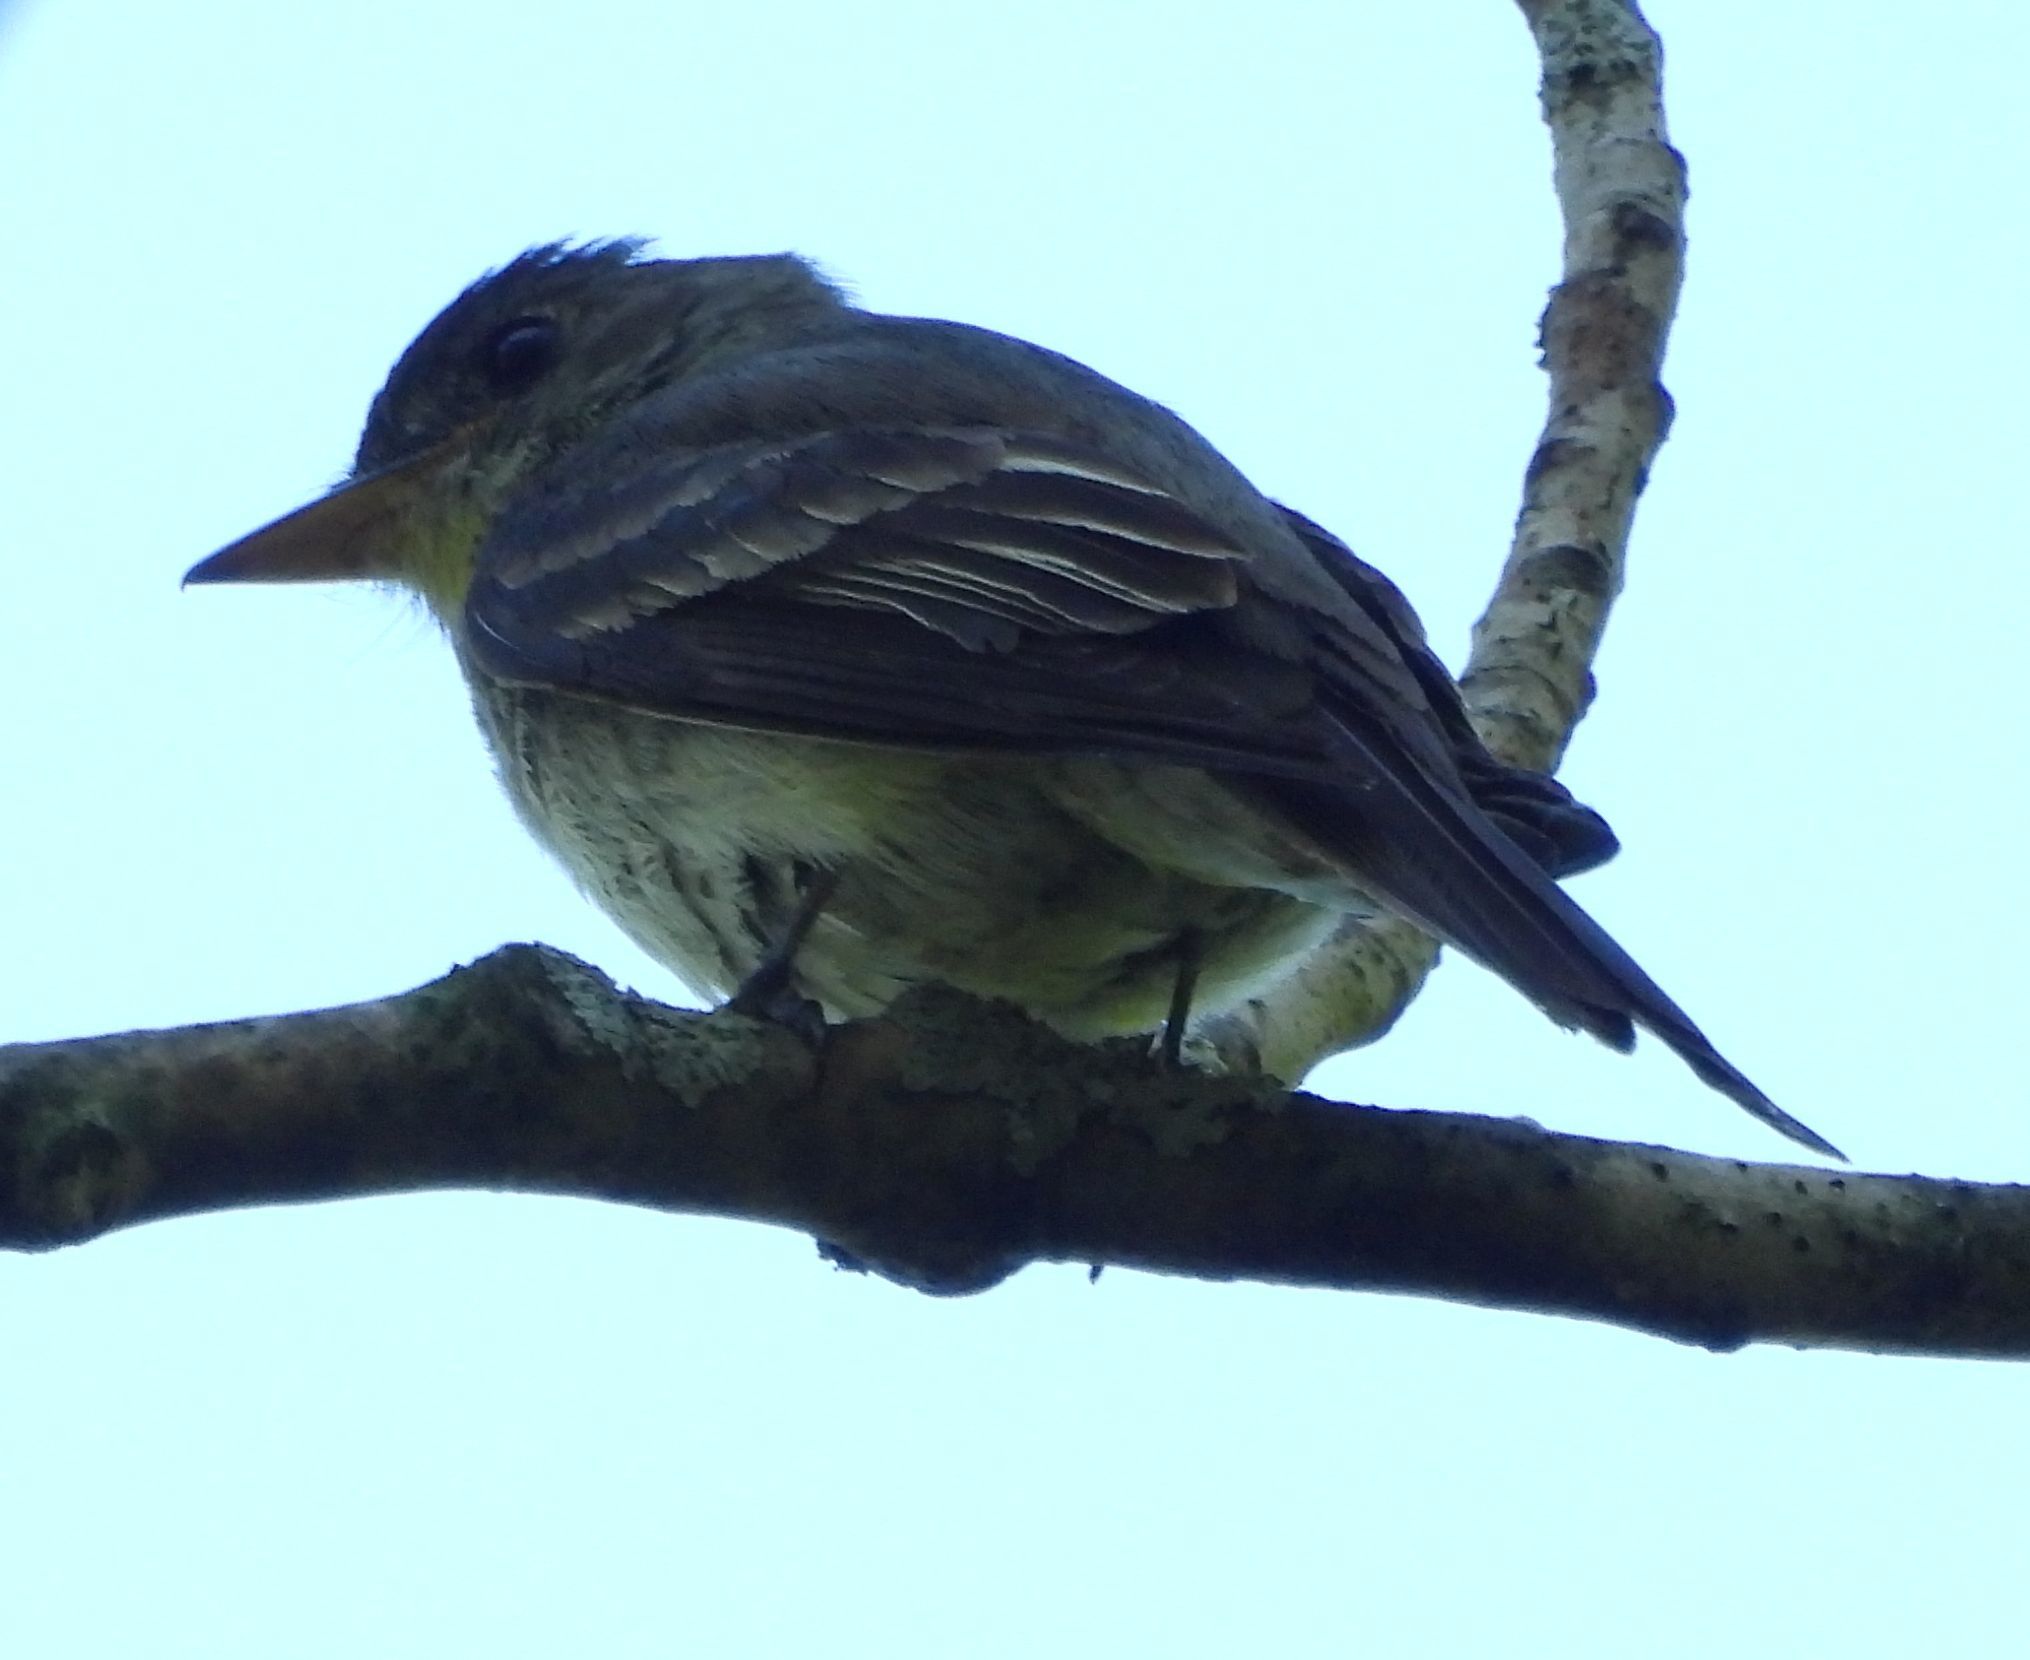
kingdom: Animalia
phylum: Chordata
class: Aves
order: Passeriformes
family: Tyrannidae
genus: Contopus
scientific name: Contopus virens
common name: Eastern wood-pewee
